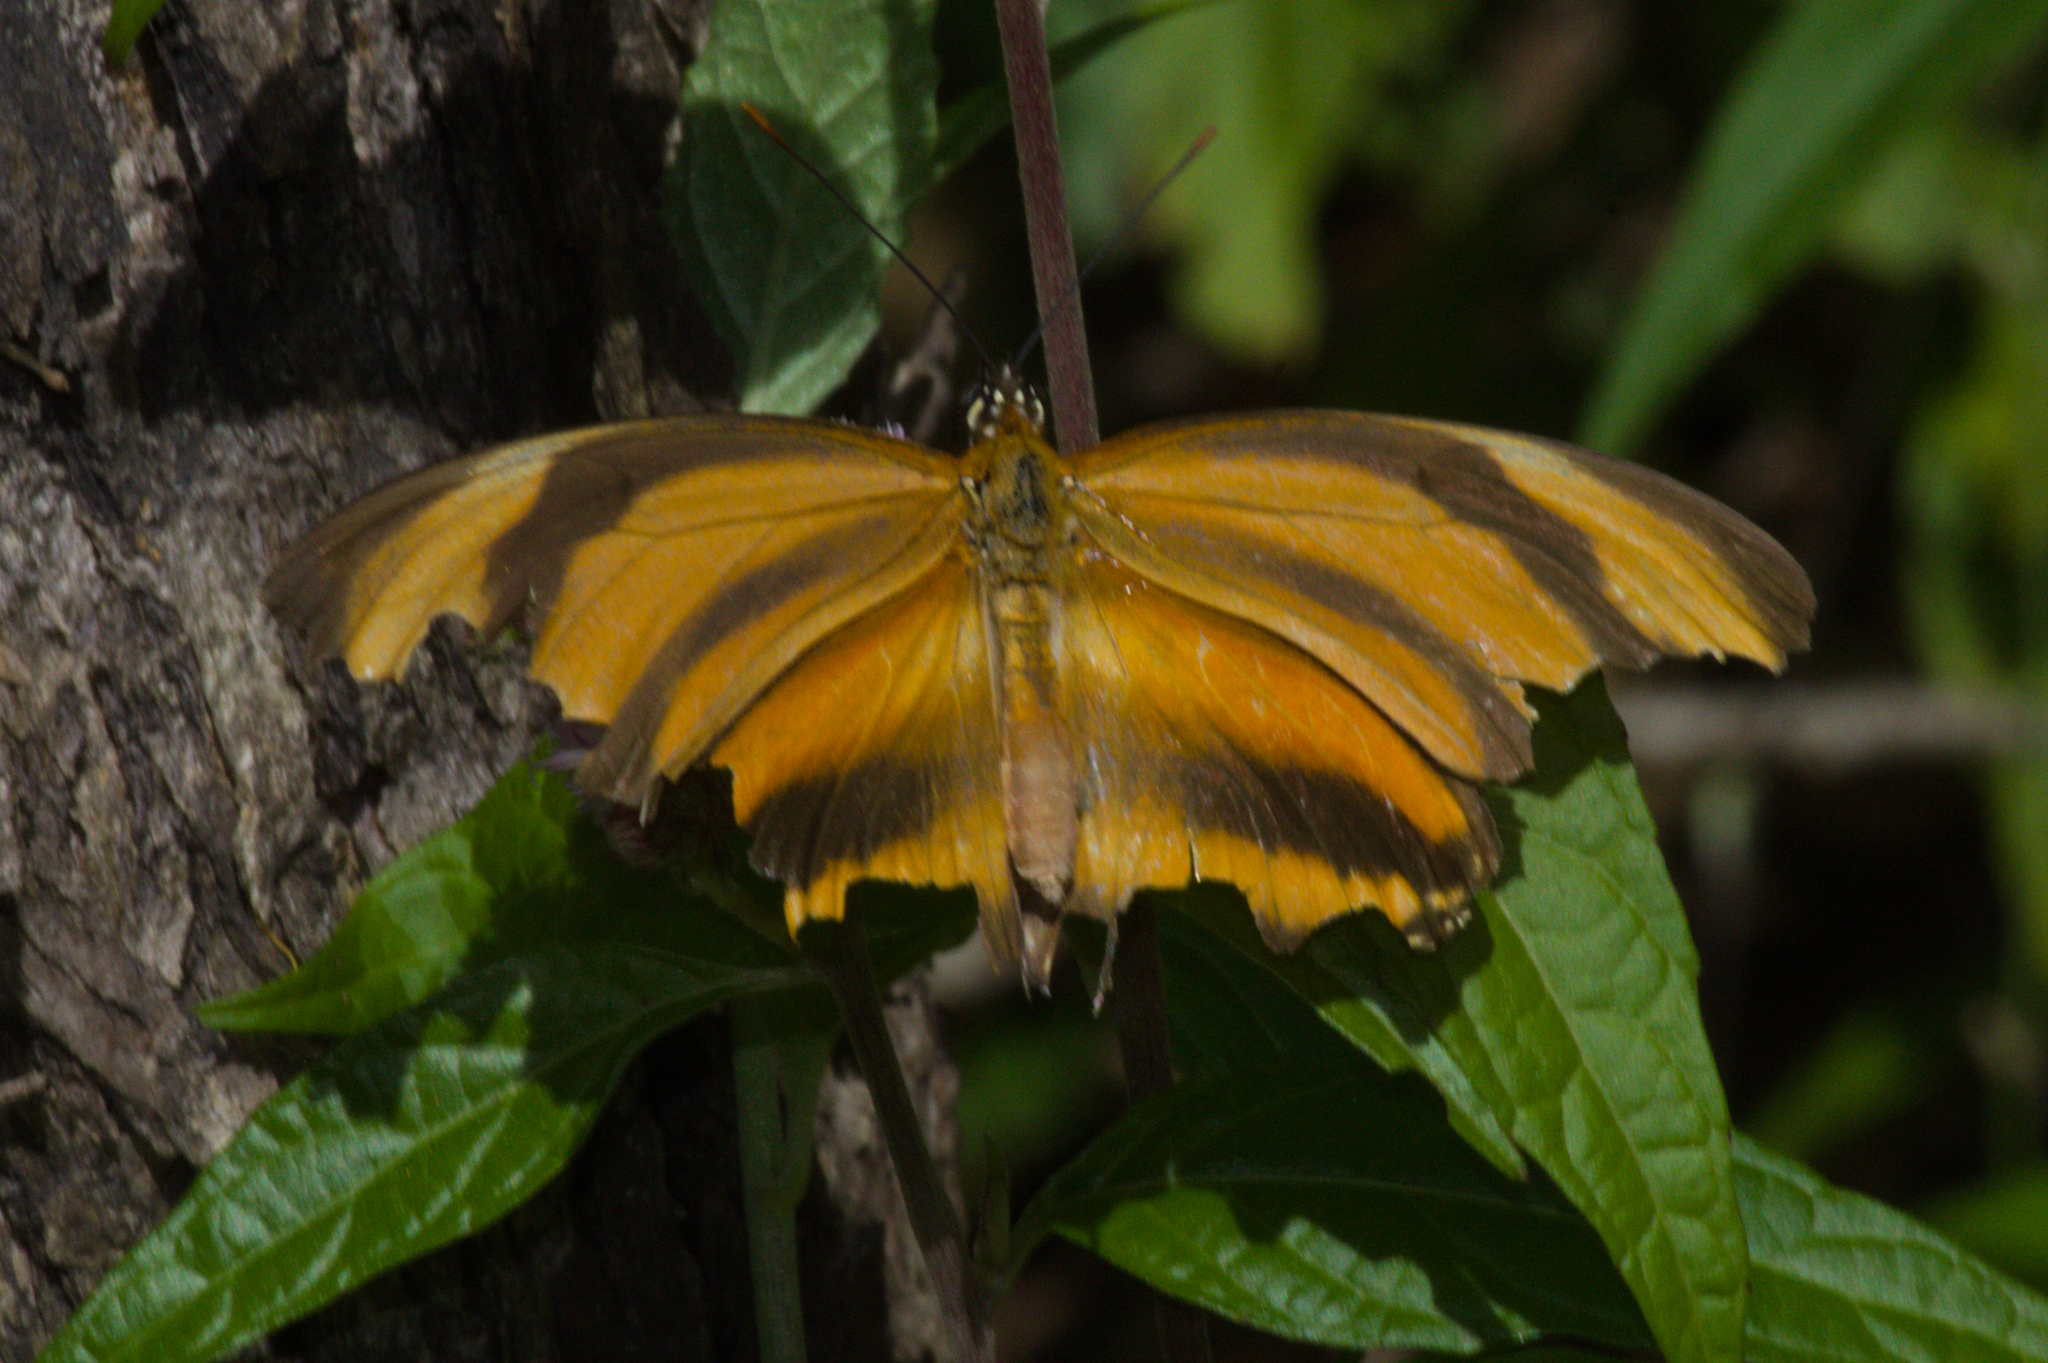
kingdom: Animalia
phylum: Arthropoda
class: Insecta
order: Lepidoptera
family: Nymphalidae
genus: Dryadula
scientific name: Dryadula phaetusa
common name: Banded orange heliconian
